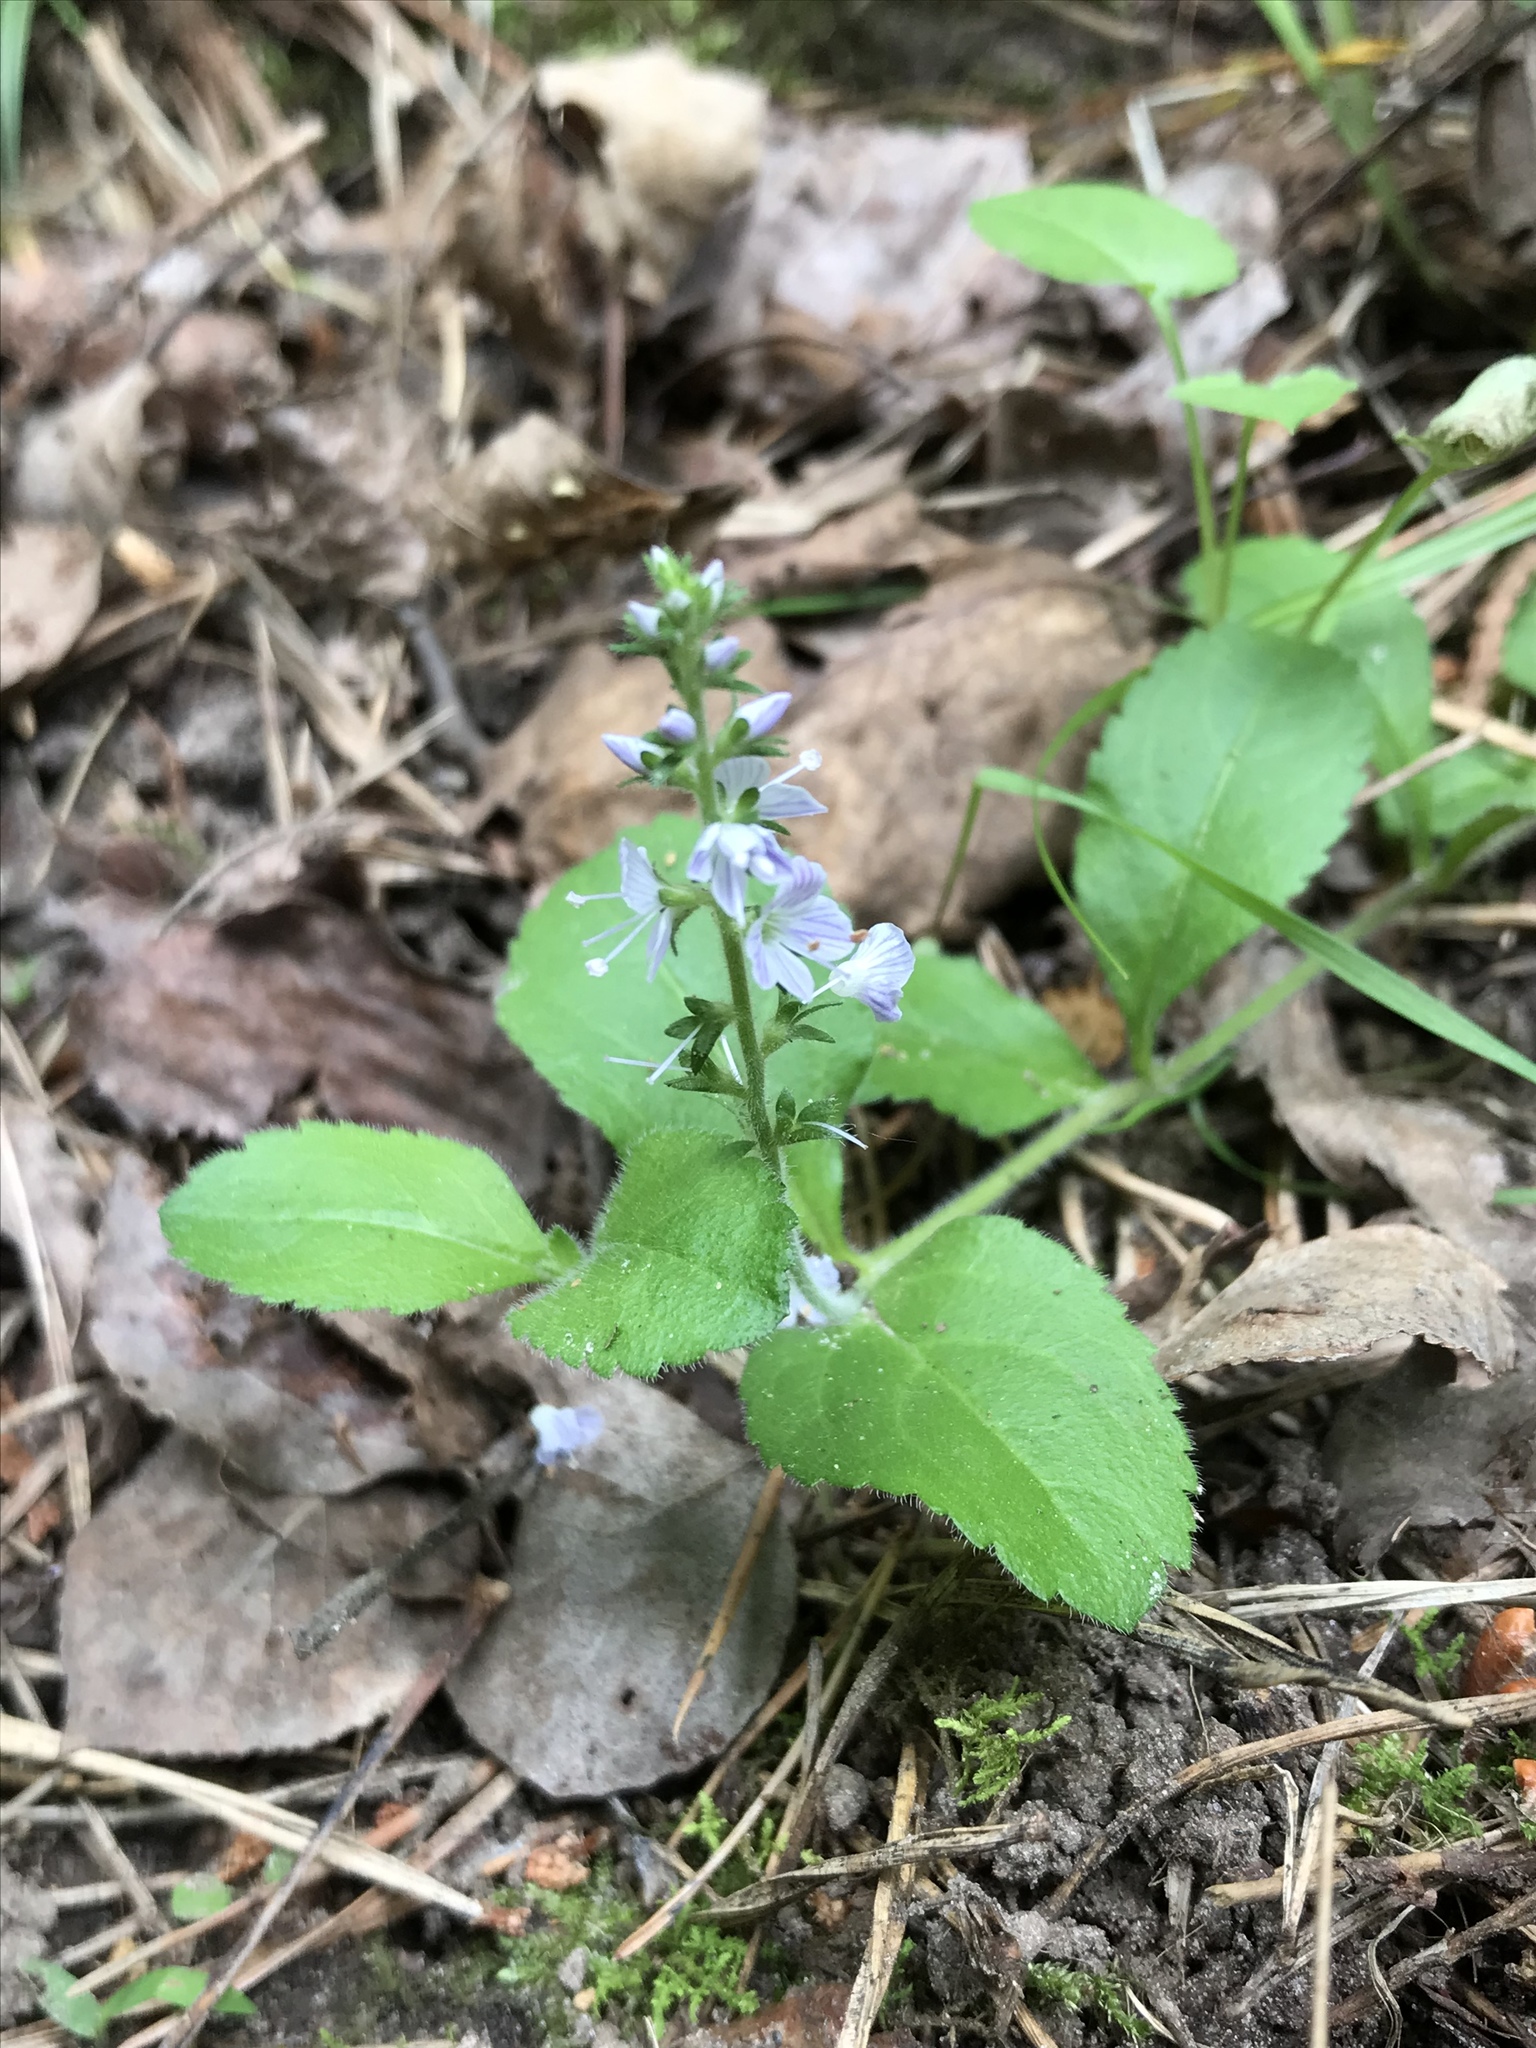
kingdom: Plantae
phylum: Tracheophyta
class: Magnoliopsida
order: Lamiales
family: Plantaginaceae
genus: Veronica
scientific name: Veronica officinalis
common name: Common speedwell
